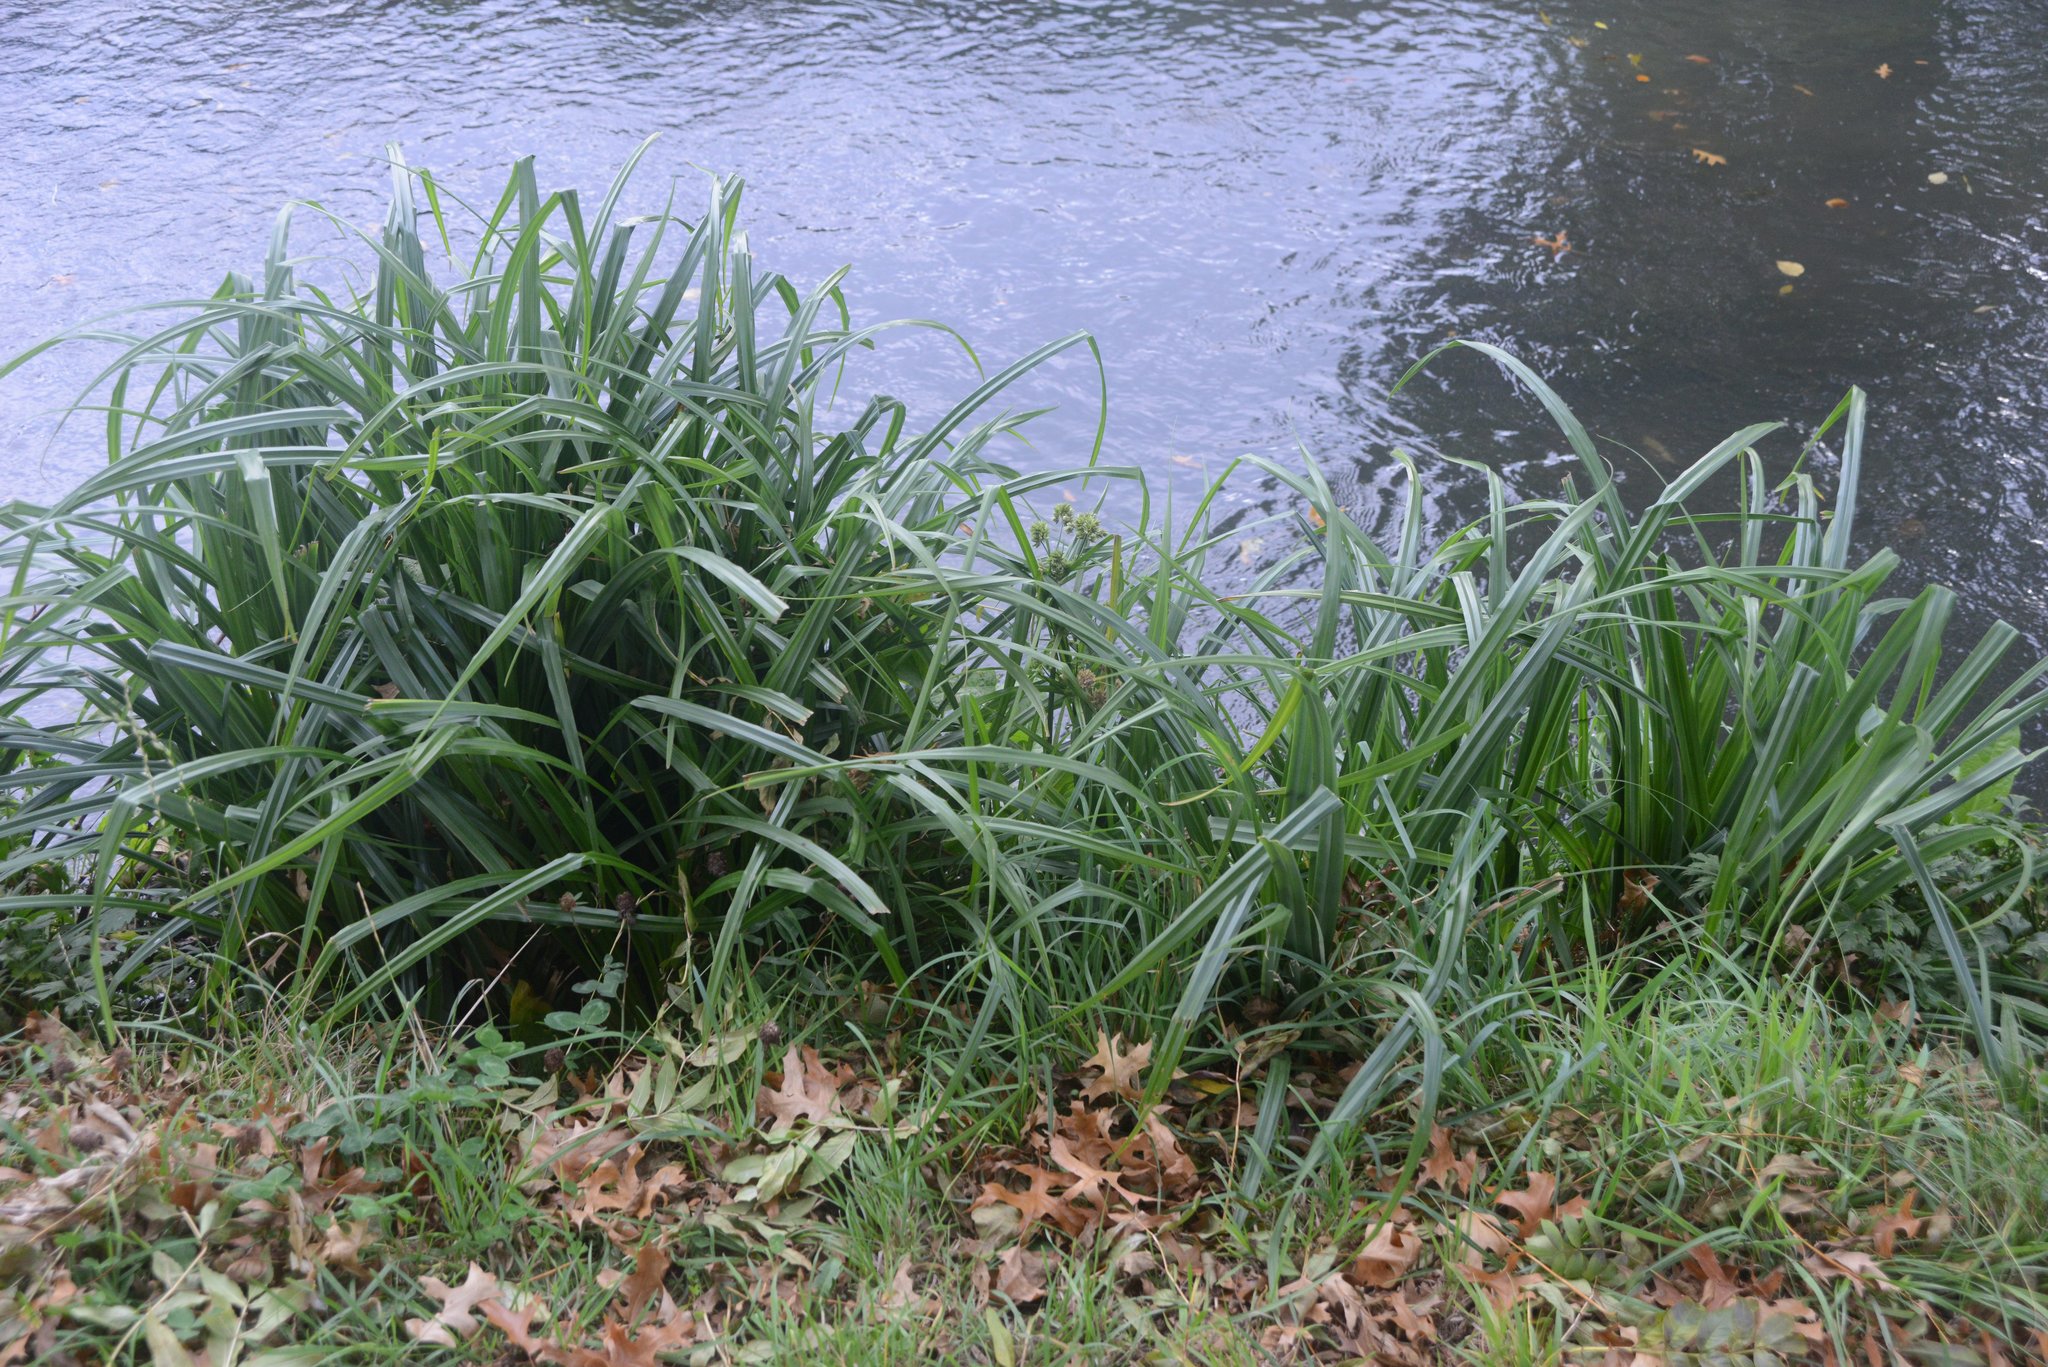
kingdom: Plantae
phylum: Tracheophyta
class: Liliopsida
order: Poales
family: Cyperaceae
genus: Carex
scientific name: Carex pendula
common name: Pendulous sedge
